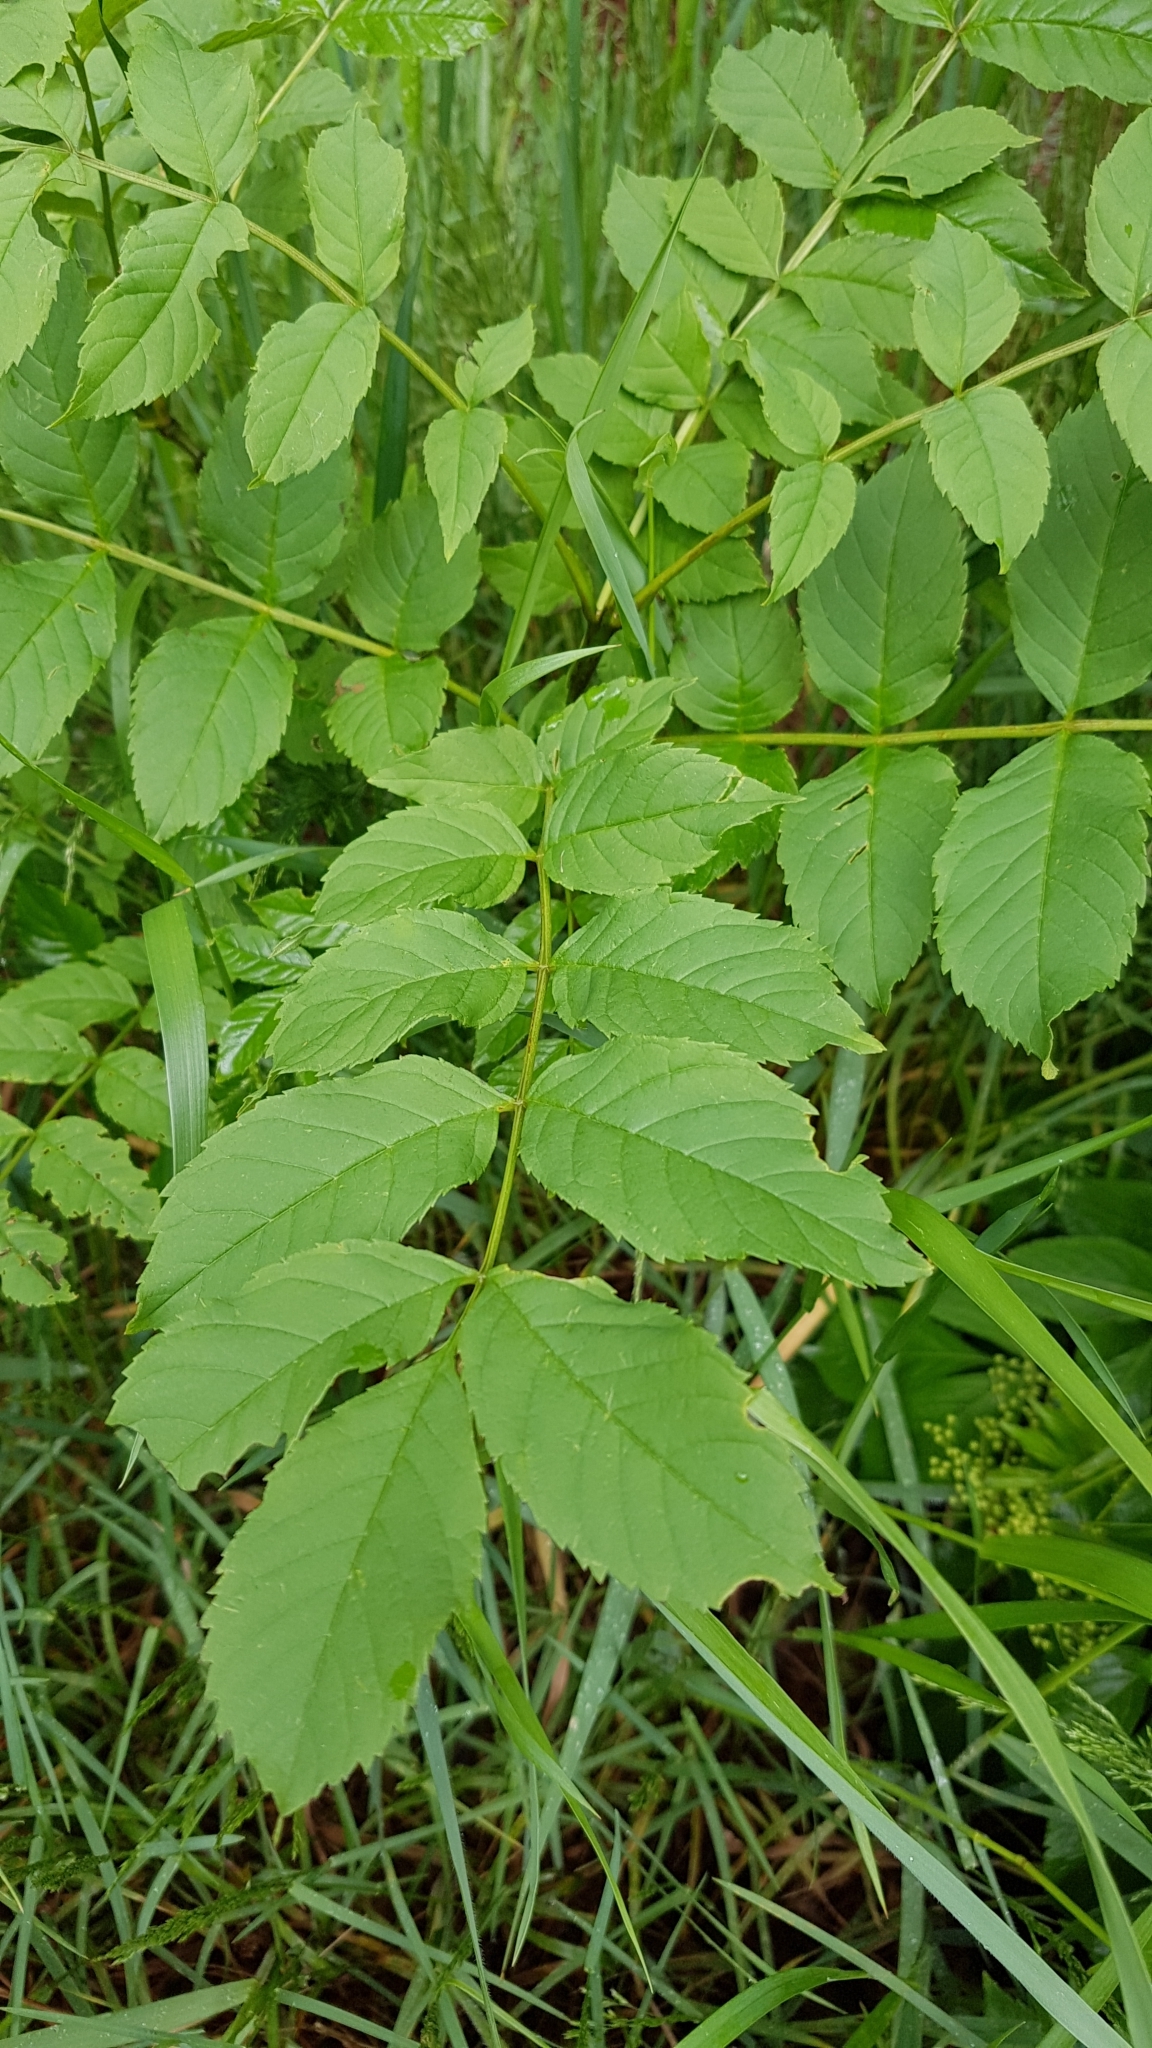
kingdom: Plantae
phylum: Tracheophyta
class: Magnoliopsida
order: Lamiales
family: Oleaceae
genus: Fraxinus
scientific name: Fraxinus excelsior
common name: European ash
